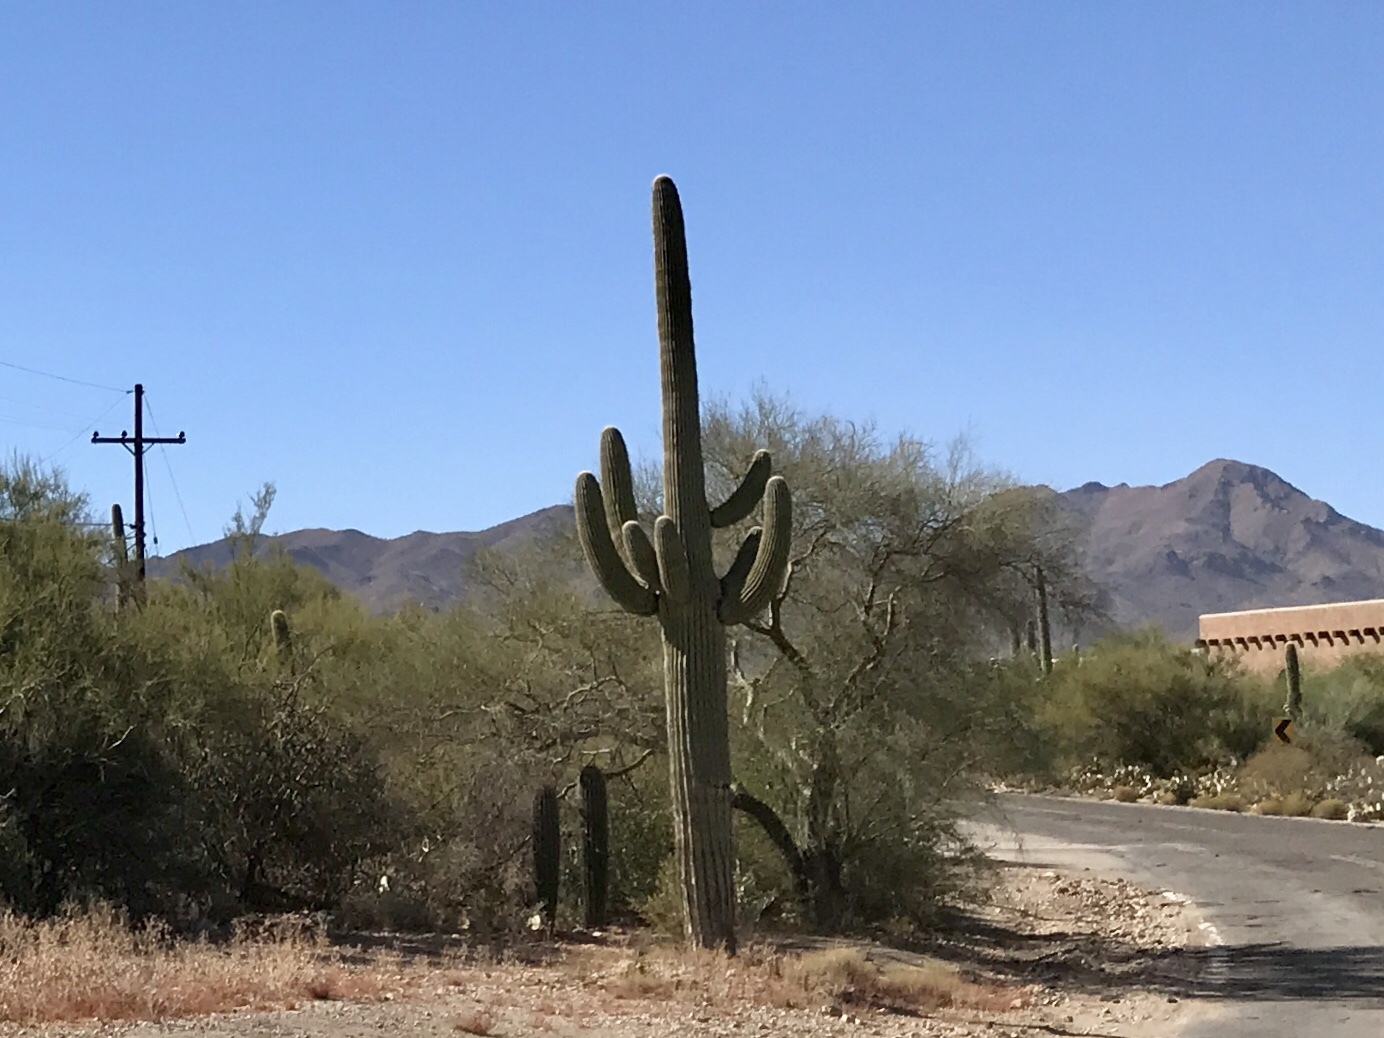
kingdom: Plantae
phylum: Tracheophyta
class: Magnoliopsida
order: Caryophyllales
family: Cactaceae
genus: Carnegiea
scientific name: Carnegiea gigantea
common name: Saguaro
